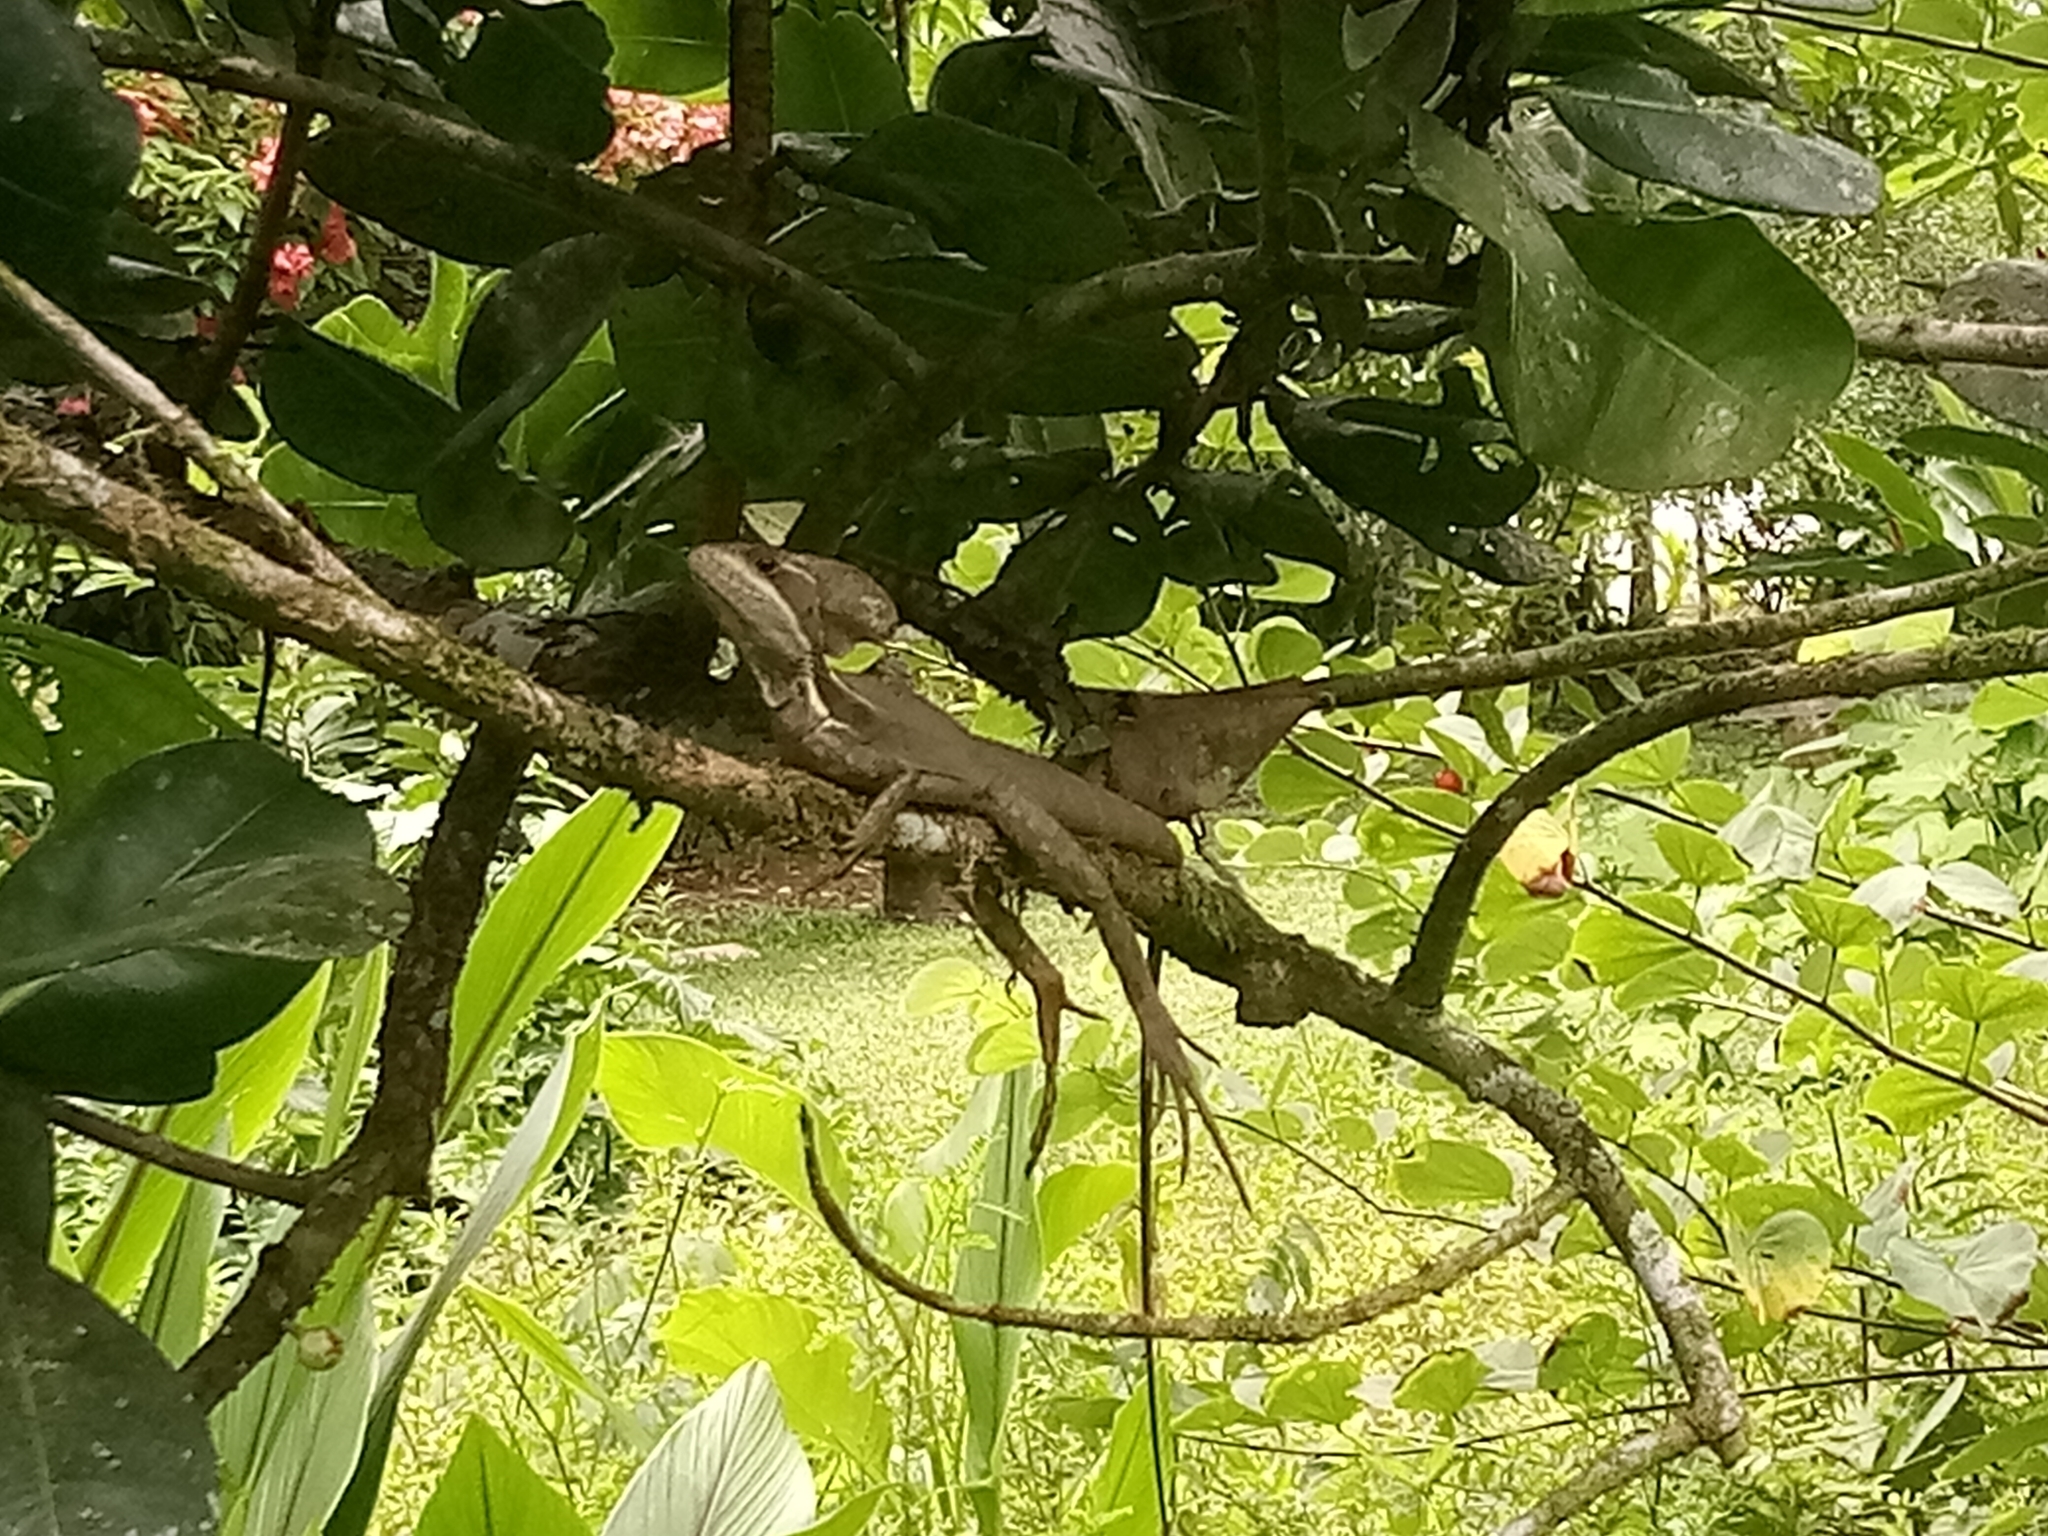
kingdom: Animalia
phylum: Chordata
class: Squamata
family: Corytophanidae
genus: Basiliscus
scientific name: Basiliscus vittatus
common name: Brown basilisk
